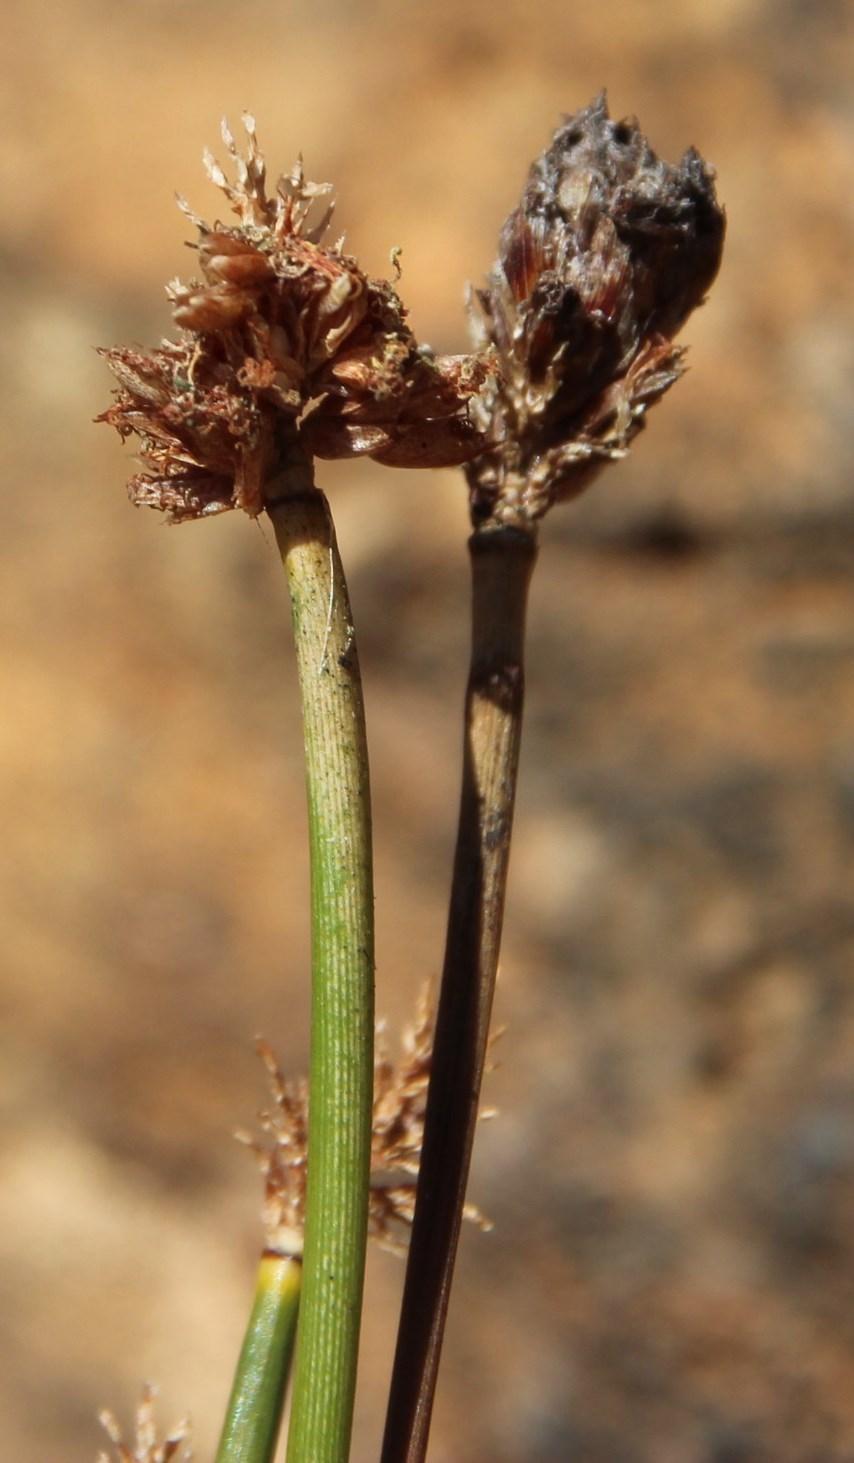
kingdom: Plantae
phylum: Tracheophyta
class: Liliopsida
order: Poales
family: Cyperaceae
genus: Ficinia
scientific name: Ficinia brevifolia
